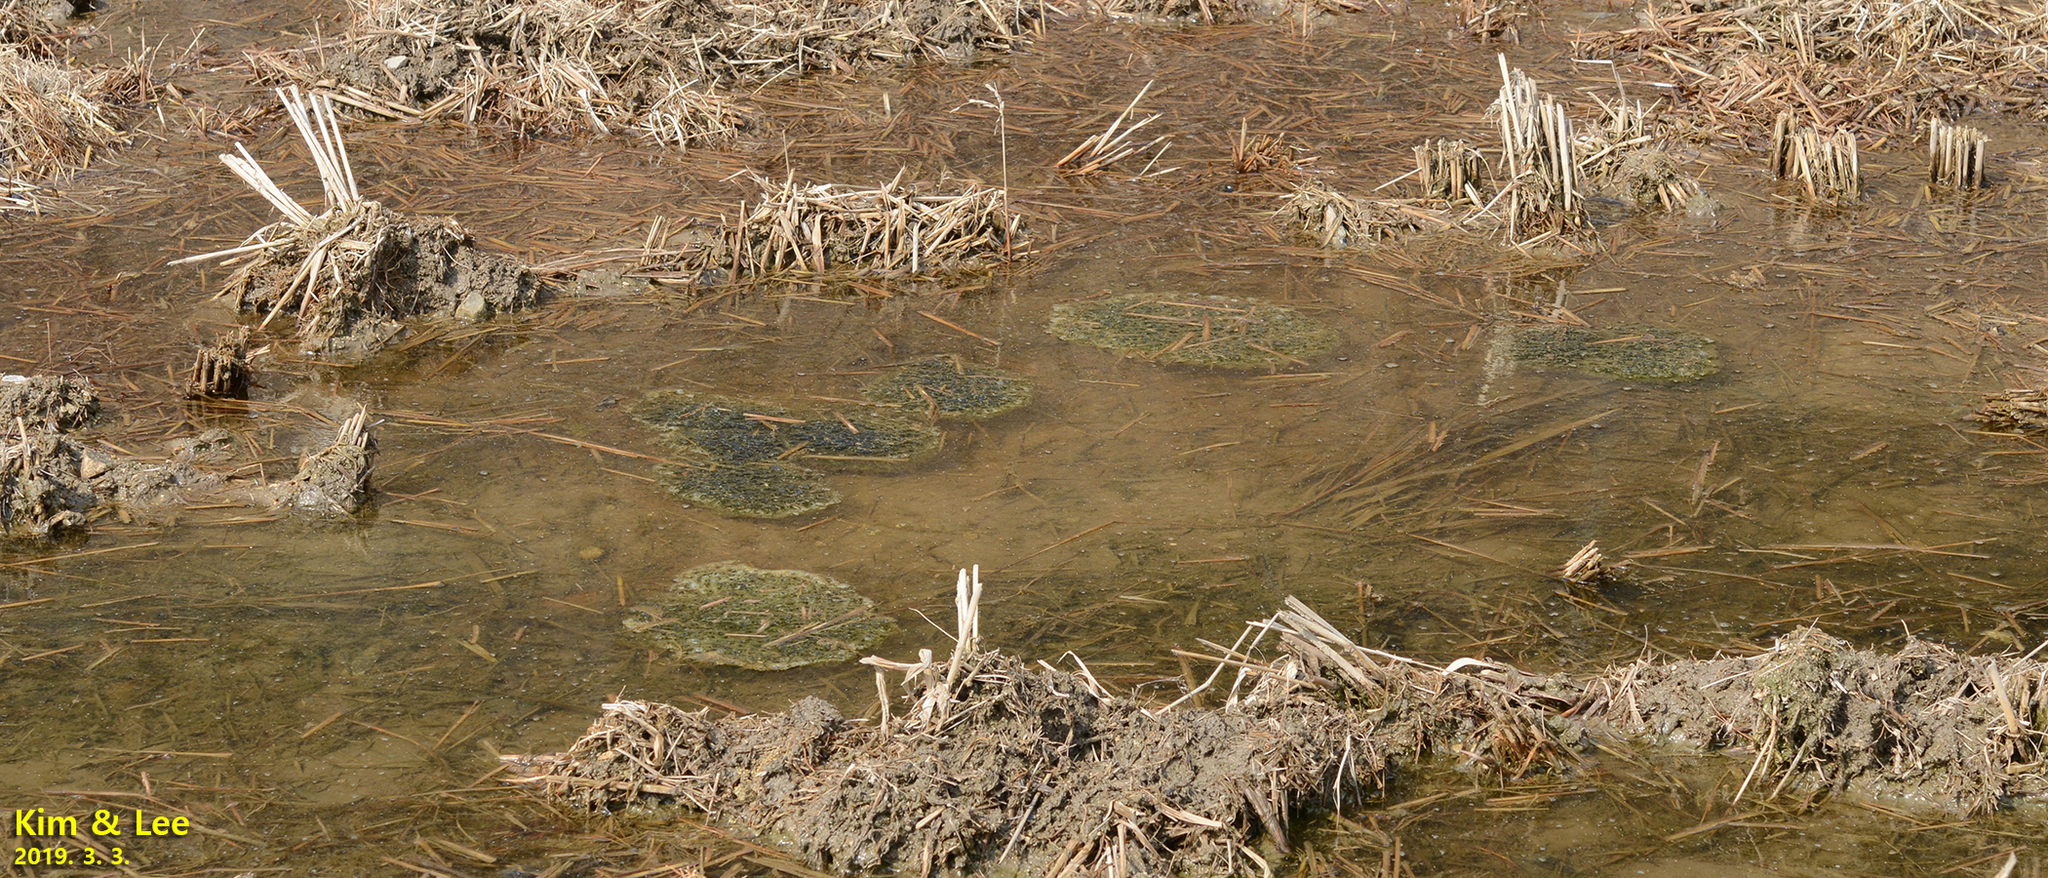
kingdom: Animalia
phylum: Chordata
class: Amphibia
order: Anura
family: Ranidae
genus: Rana
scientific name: Rana uenoi
